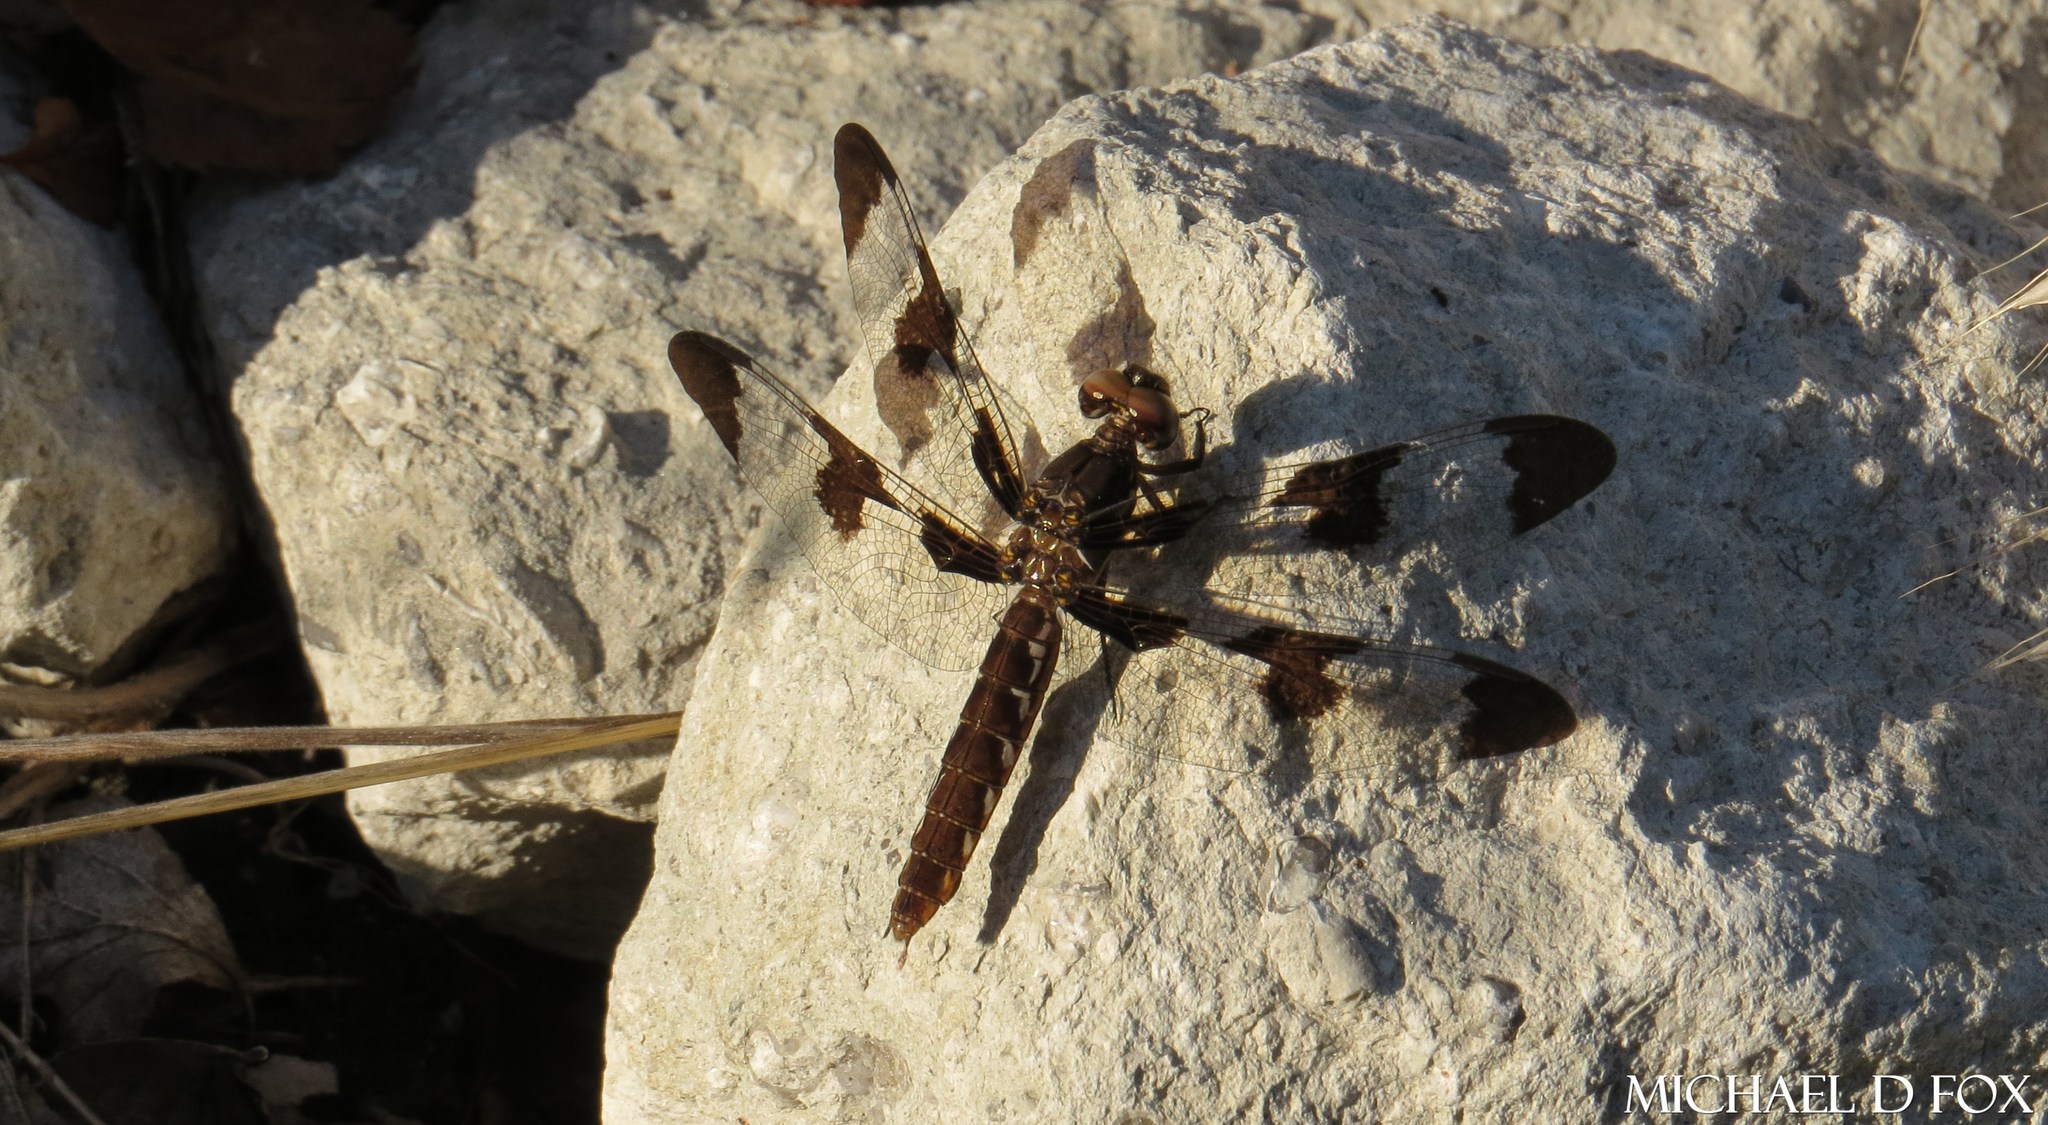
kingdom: Animalia
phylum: Arthropoda
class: Insecta
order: Odonata
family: Libellulidae
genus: Plathemis
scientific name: Plathemis lydia
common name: Common whitetail
